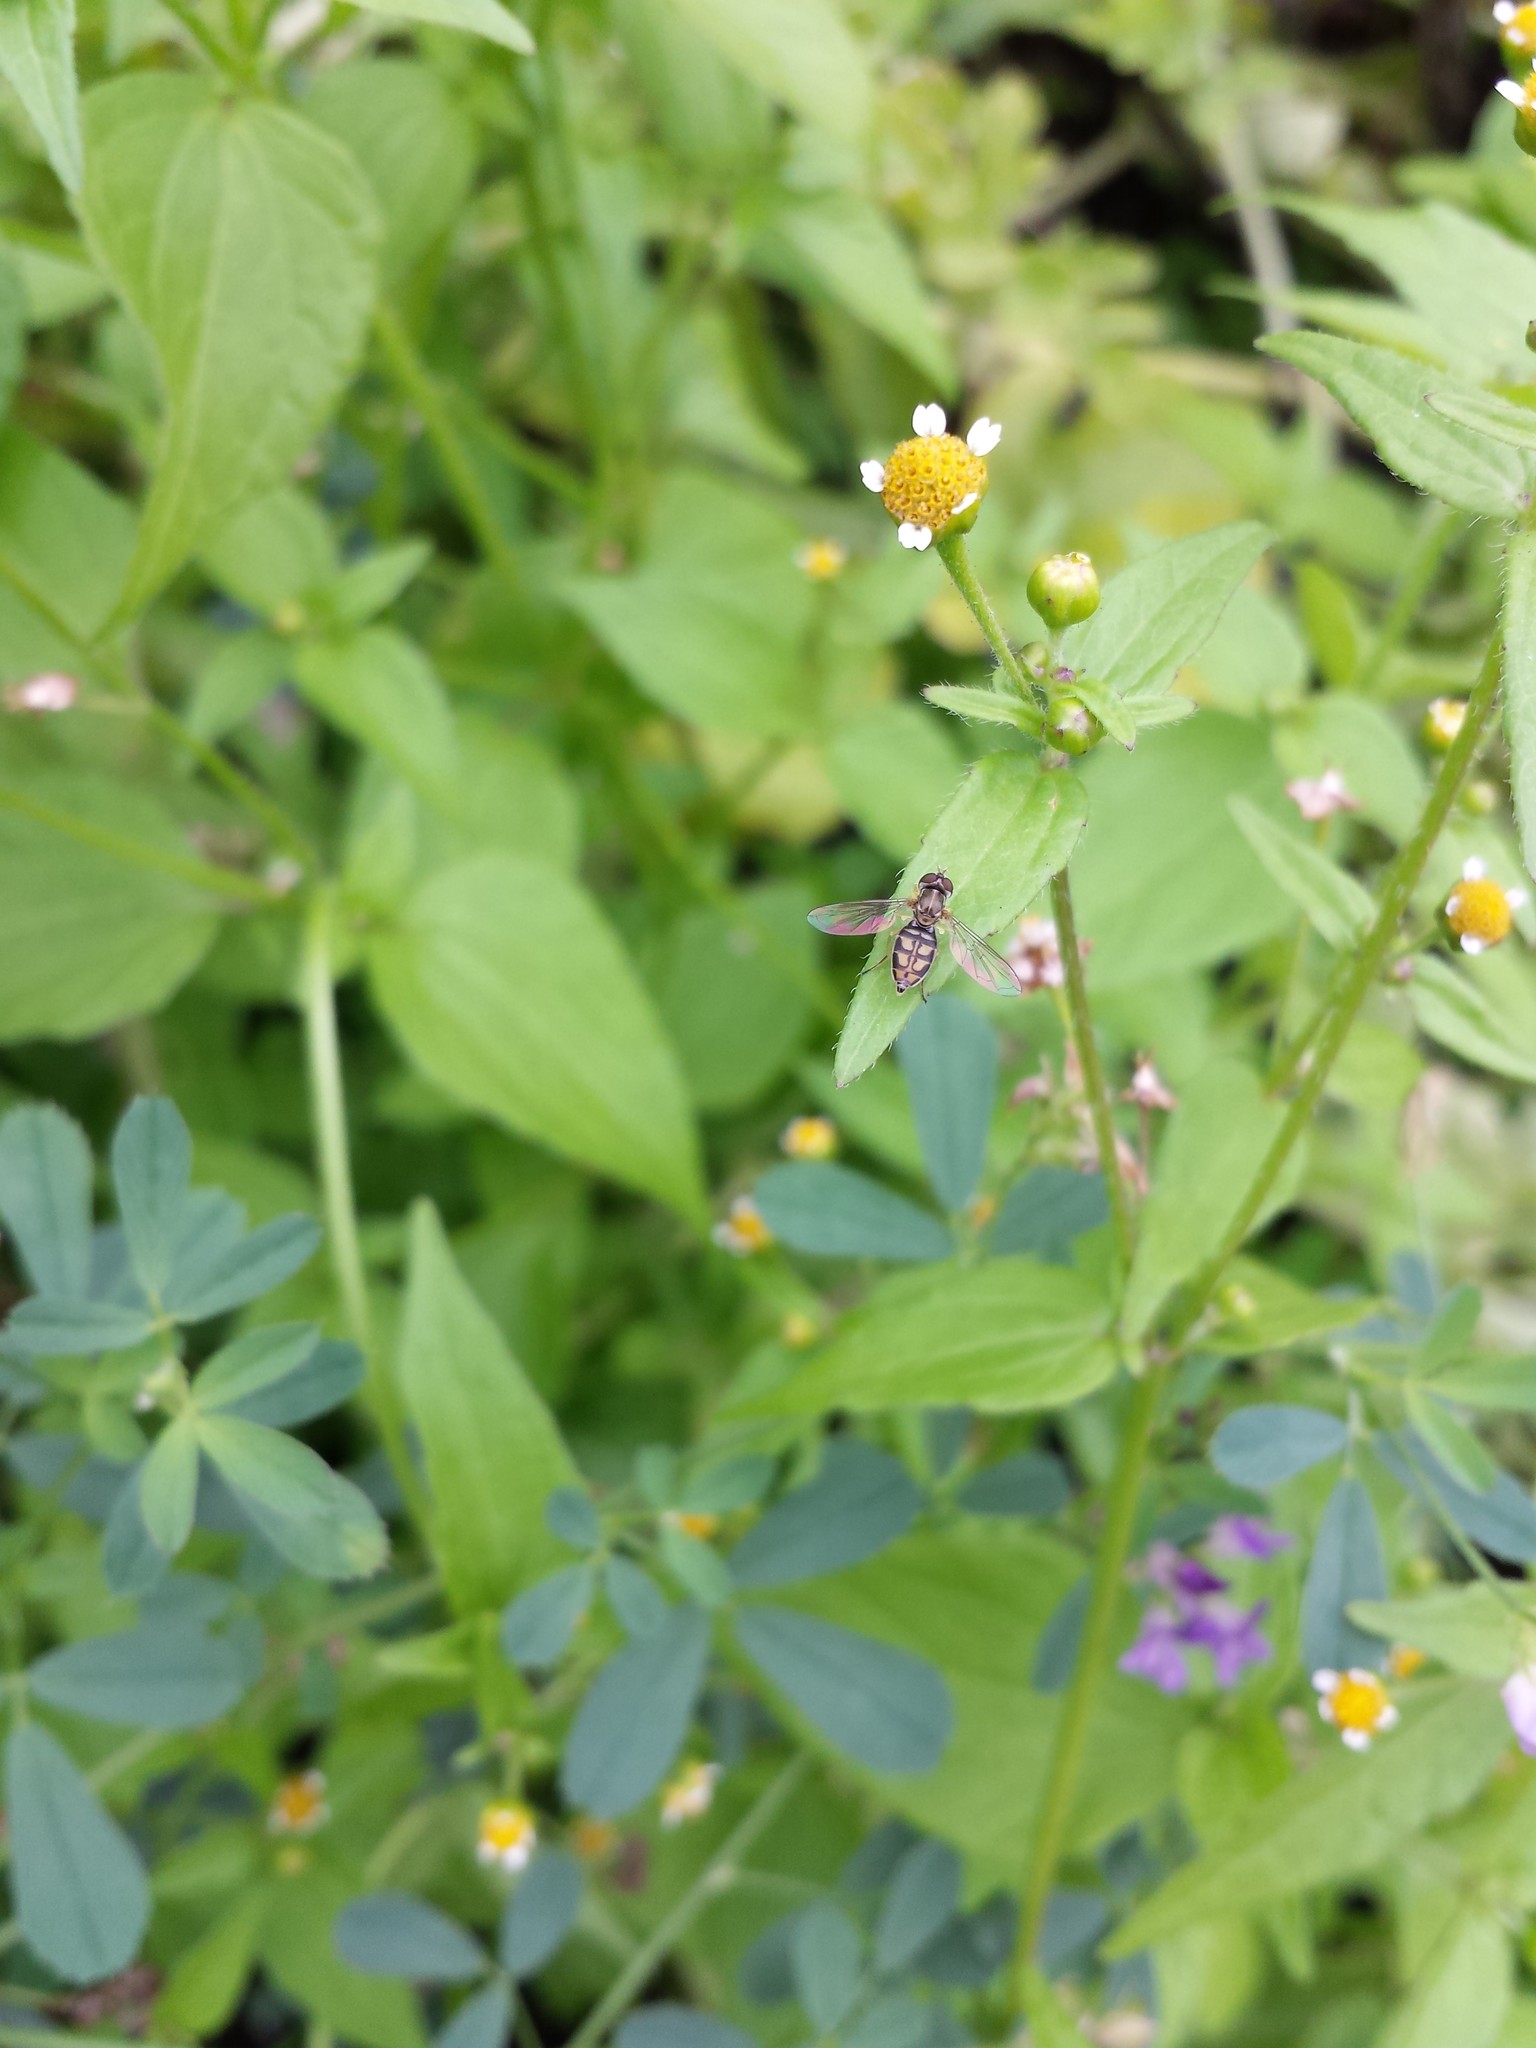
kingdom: Animalia
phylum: Arthropoda
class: Insecta
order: Diptera
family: Syrphidae
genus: Toxomerus
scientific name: Toxomerus marginatus
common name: Syrphid fly
